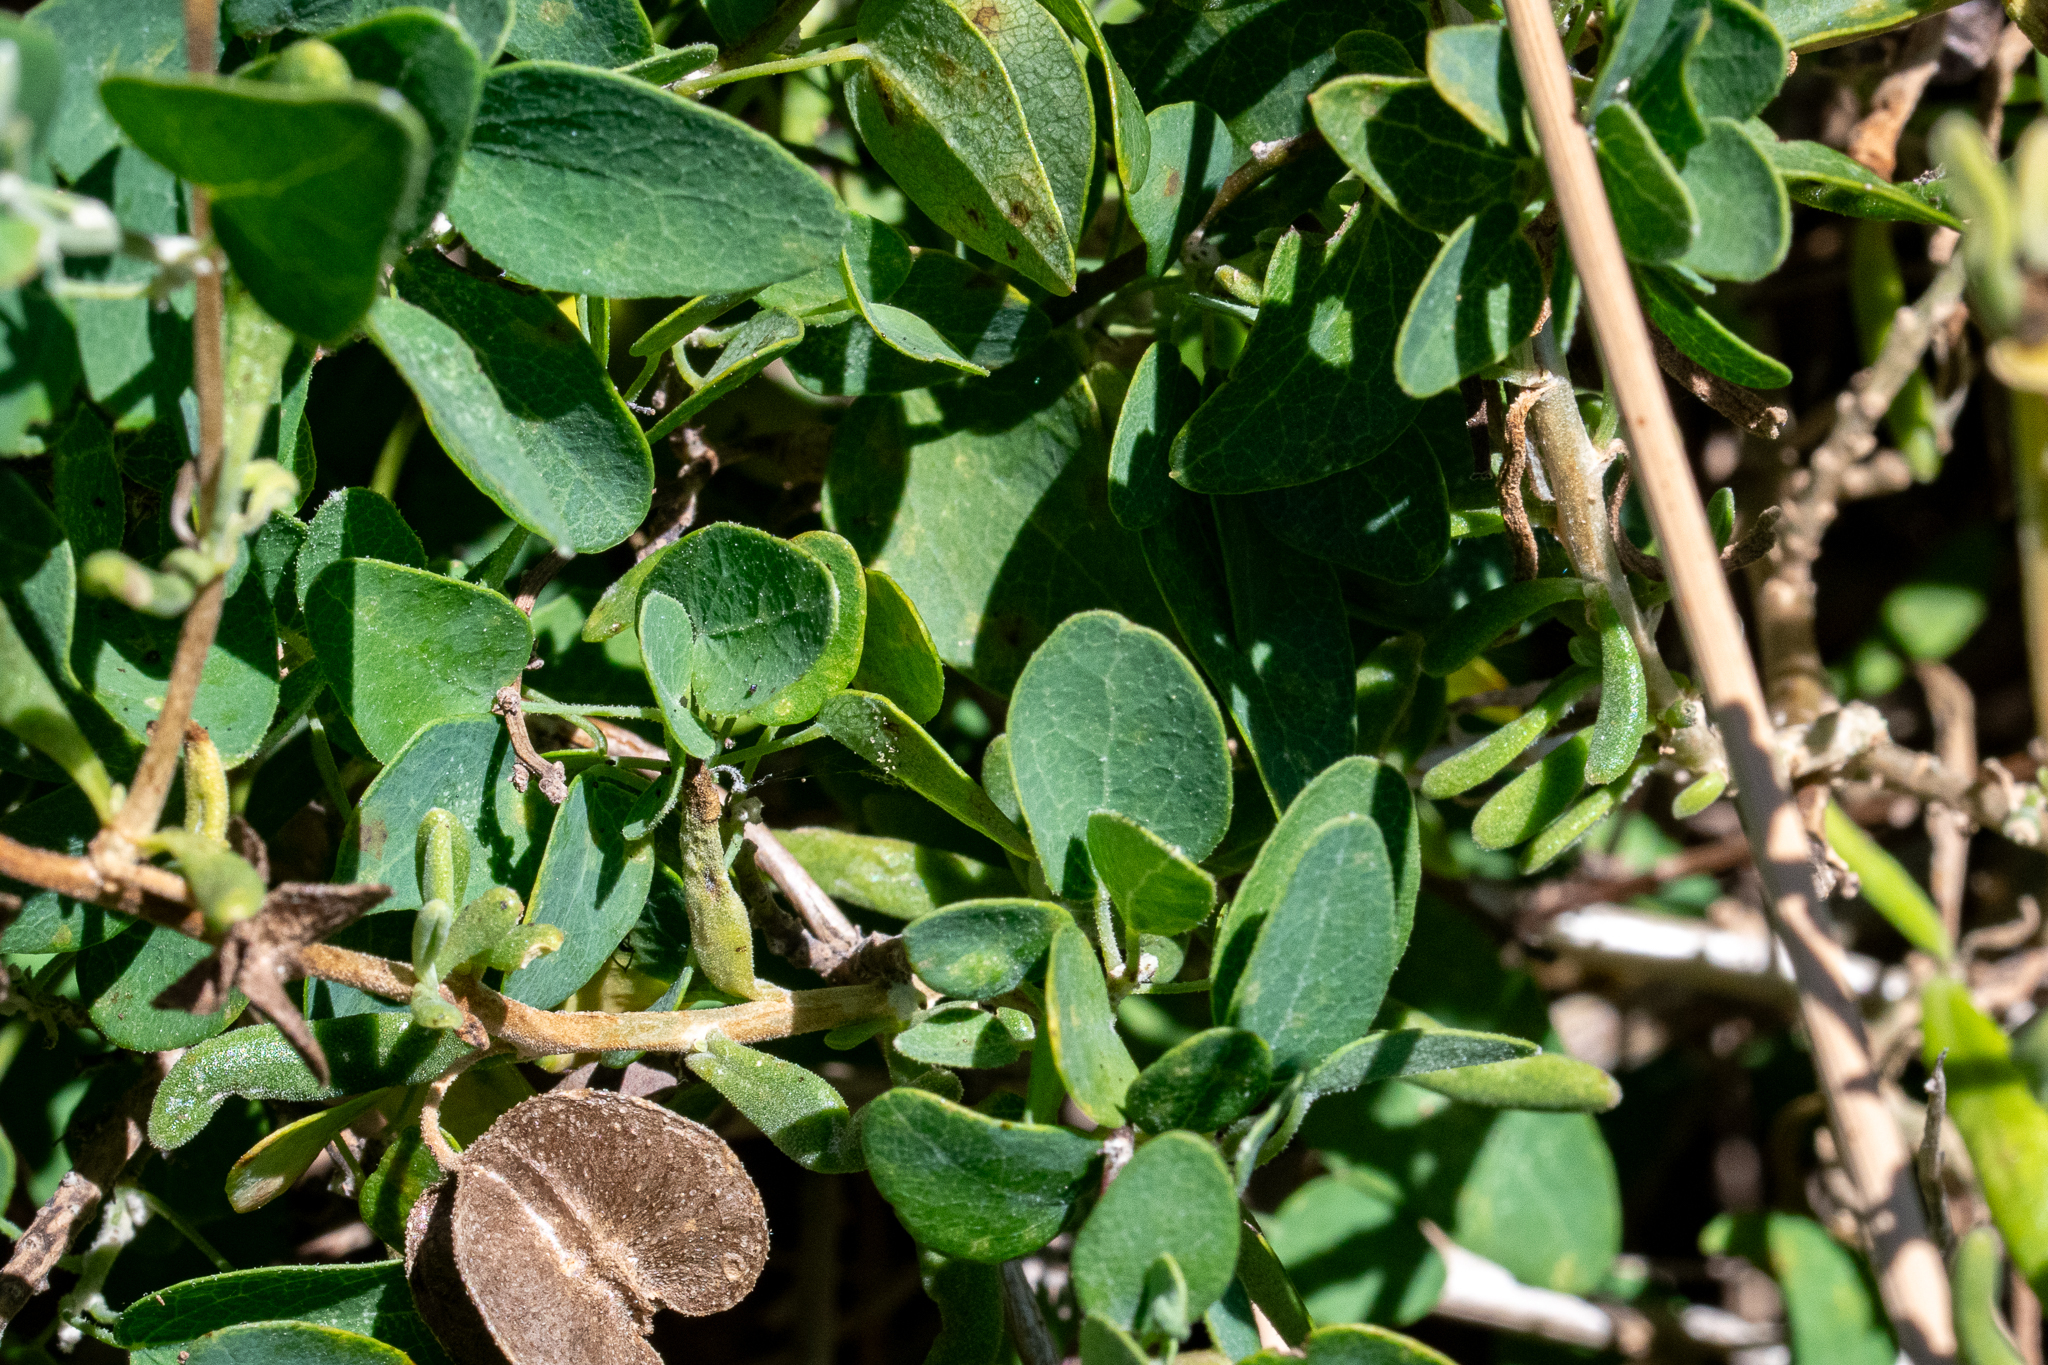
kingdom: Plantae
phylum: Tracheophyta
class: Magnoliopsida
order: Ranunculales
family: Menispermaceae
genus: Cissampelos
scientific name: Cissampelos capensis
